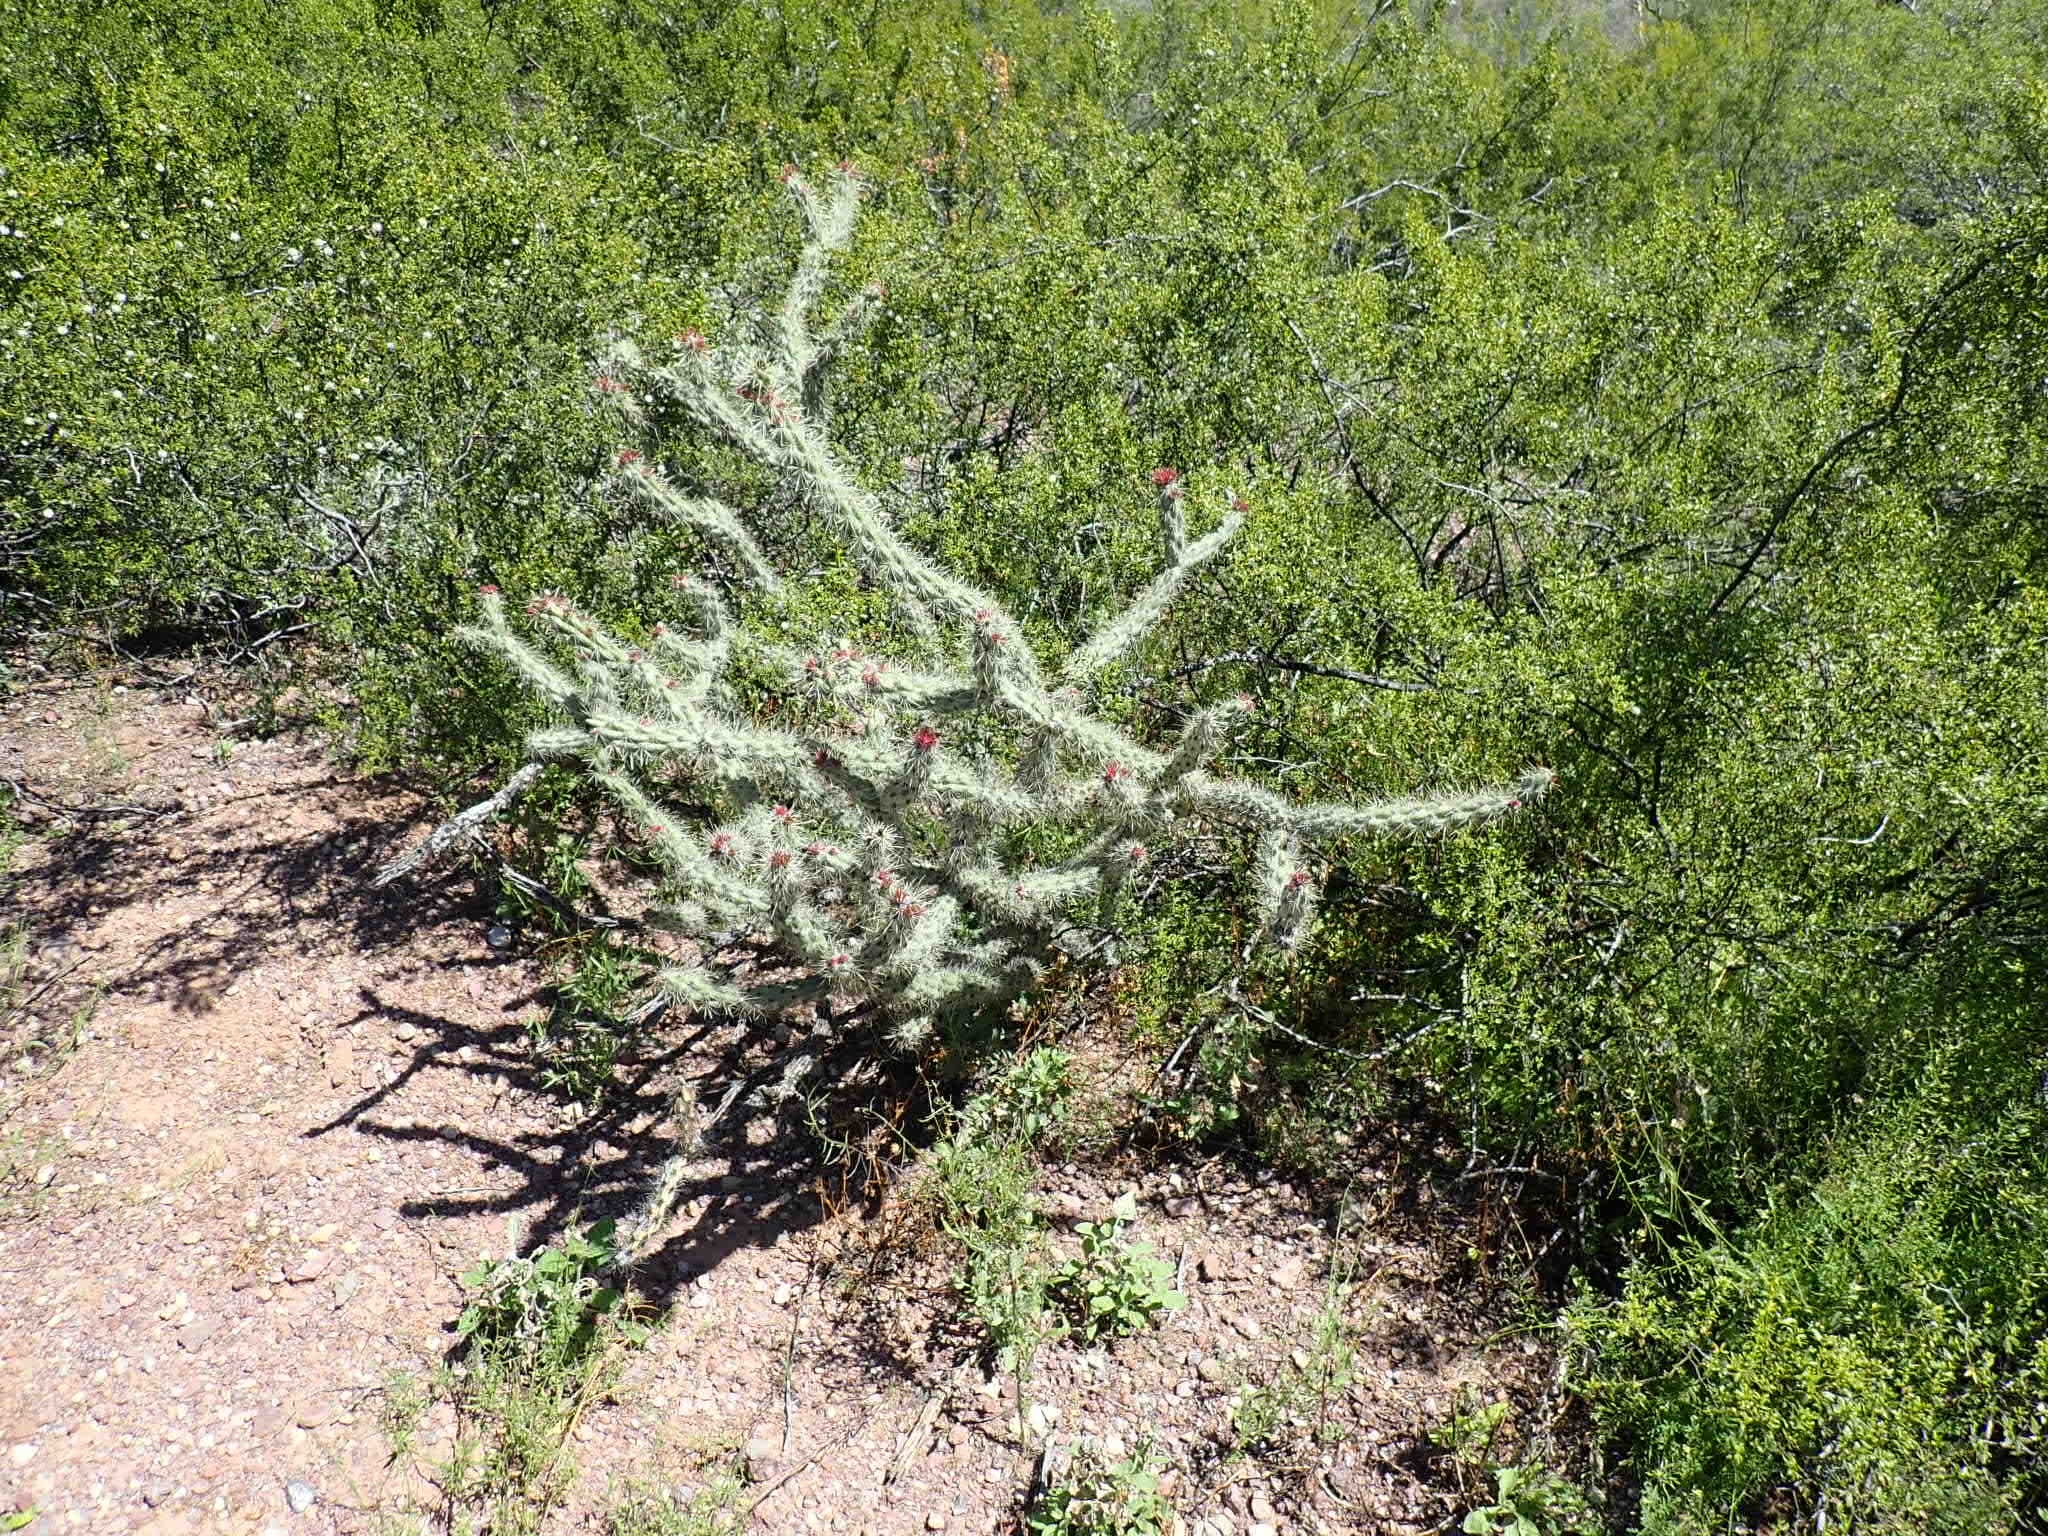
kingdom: Plantae
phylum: Tracheophyta
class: Magnoliopsida
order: Caryophyllales
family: Cactaceae
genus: Cylindropuntia
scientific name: Cylindropuntia acanthocarpa
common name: Buckhorn cholla
